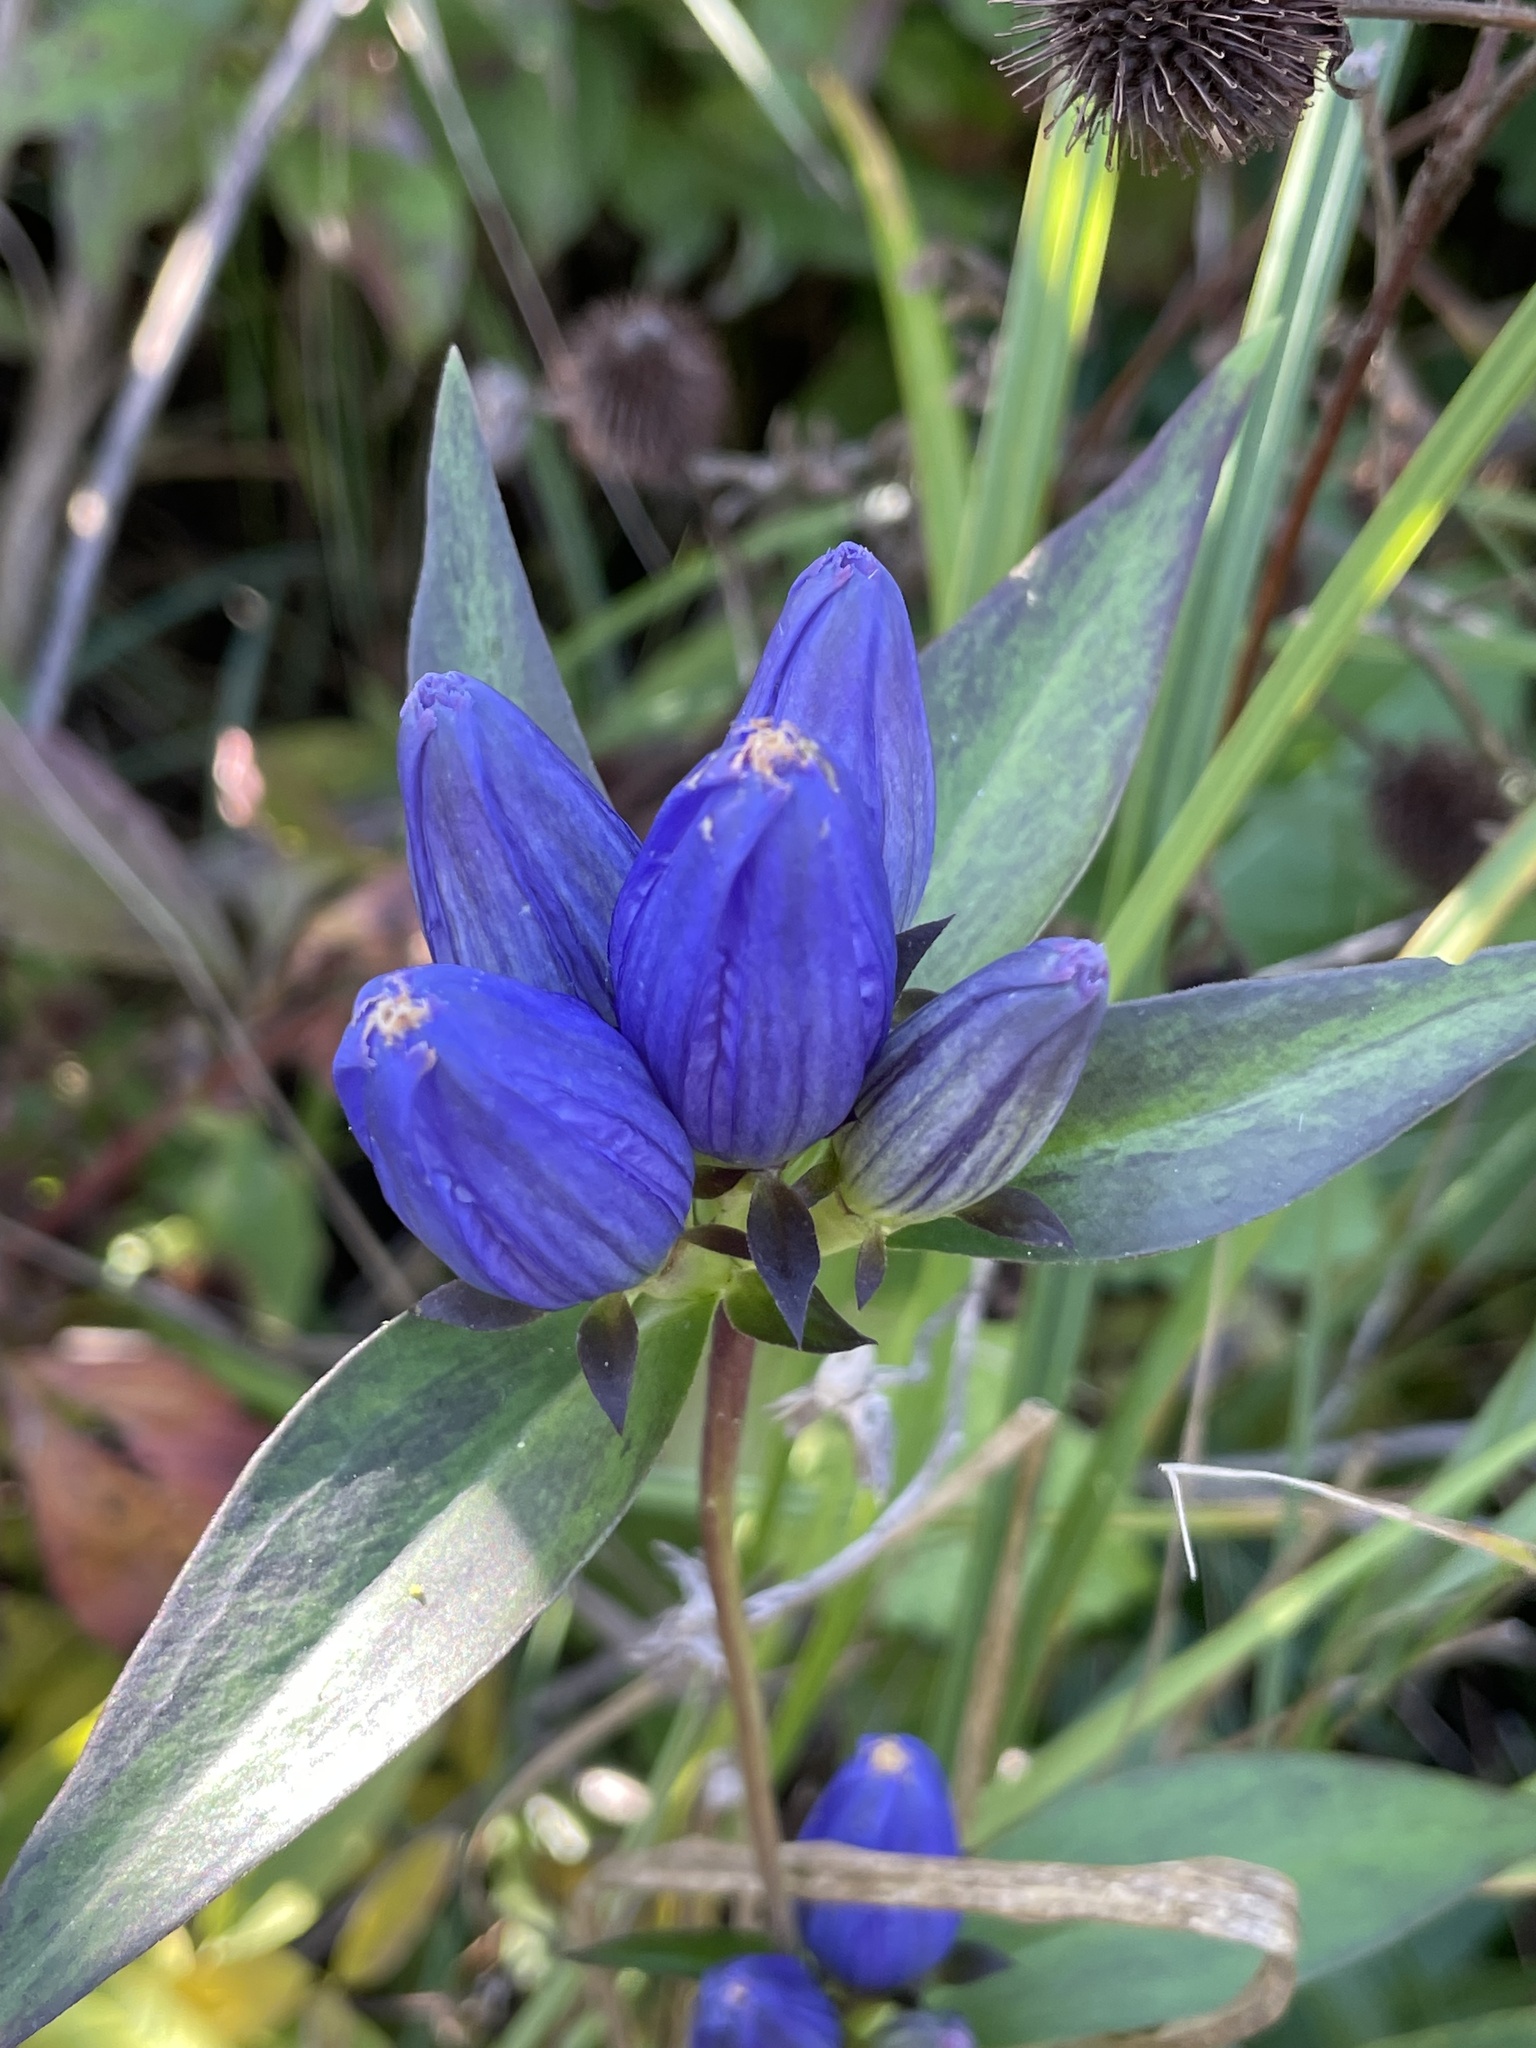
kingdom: Plantae
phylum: Tracheophyta
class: Magnoliopsida
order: Gentianales
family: Gentianaceae
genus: Gentiana
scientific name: Gentiana andrewsii
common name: Bottle gentian
